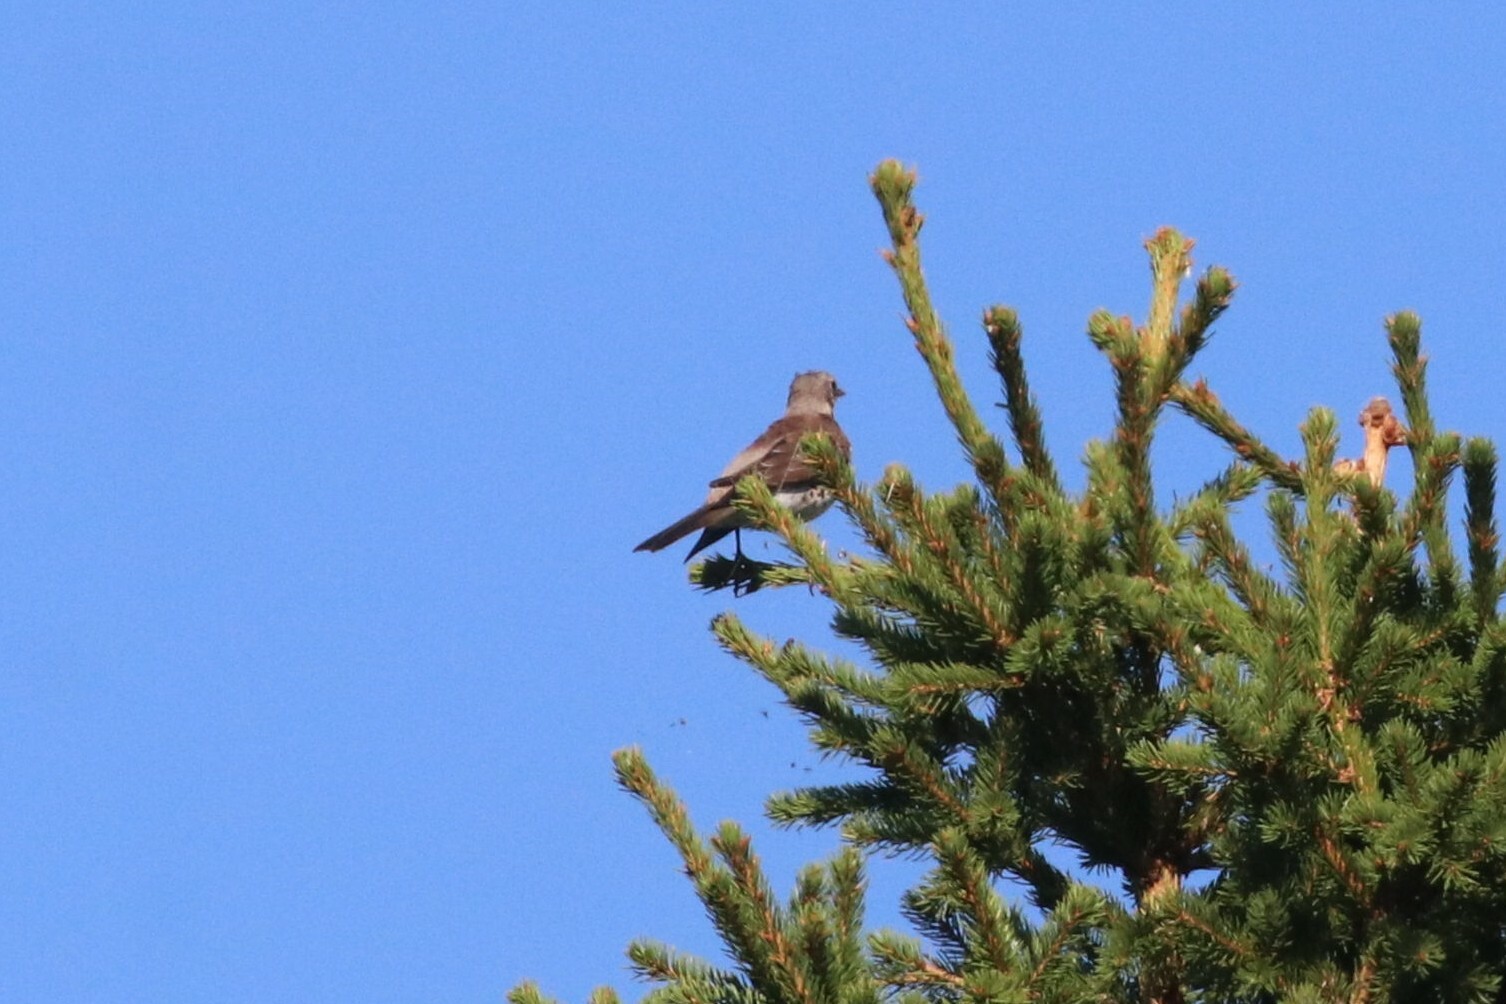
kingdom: Animalia
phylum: Chordata
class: Aves
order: Passeriformes
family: Turdidae
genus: Turdus
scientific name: Turdus pilaris
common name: Fieldfare
